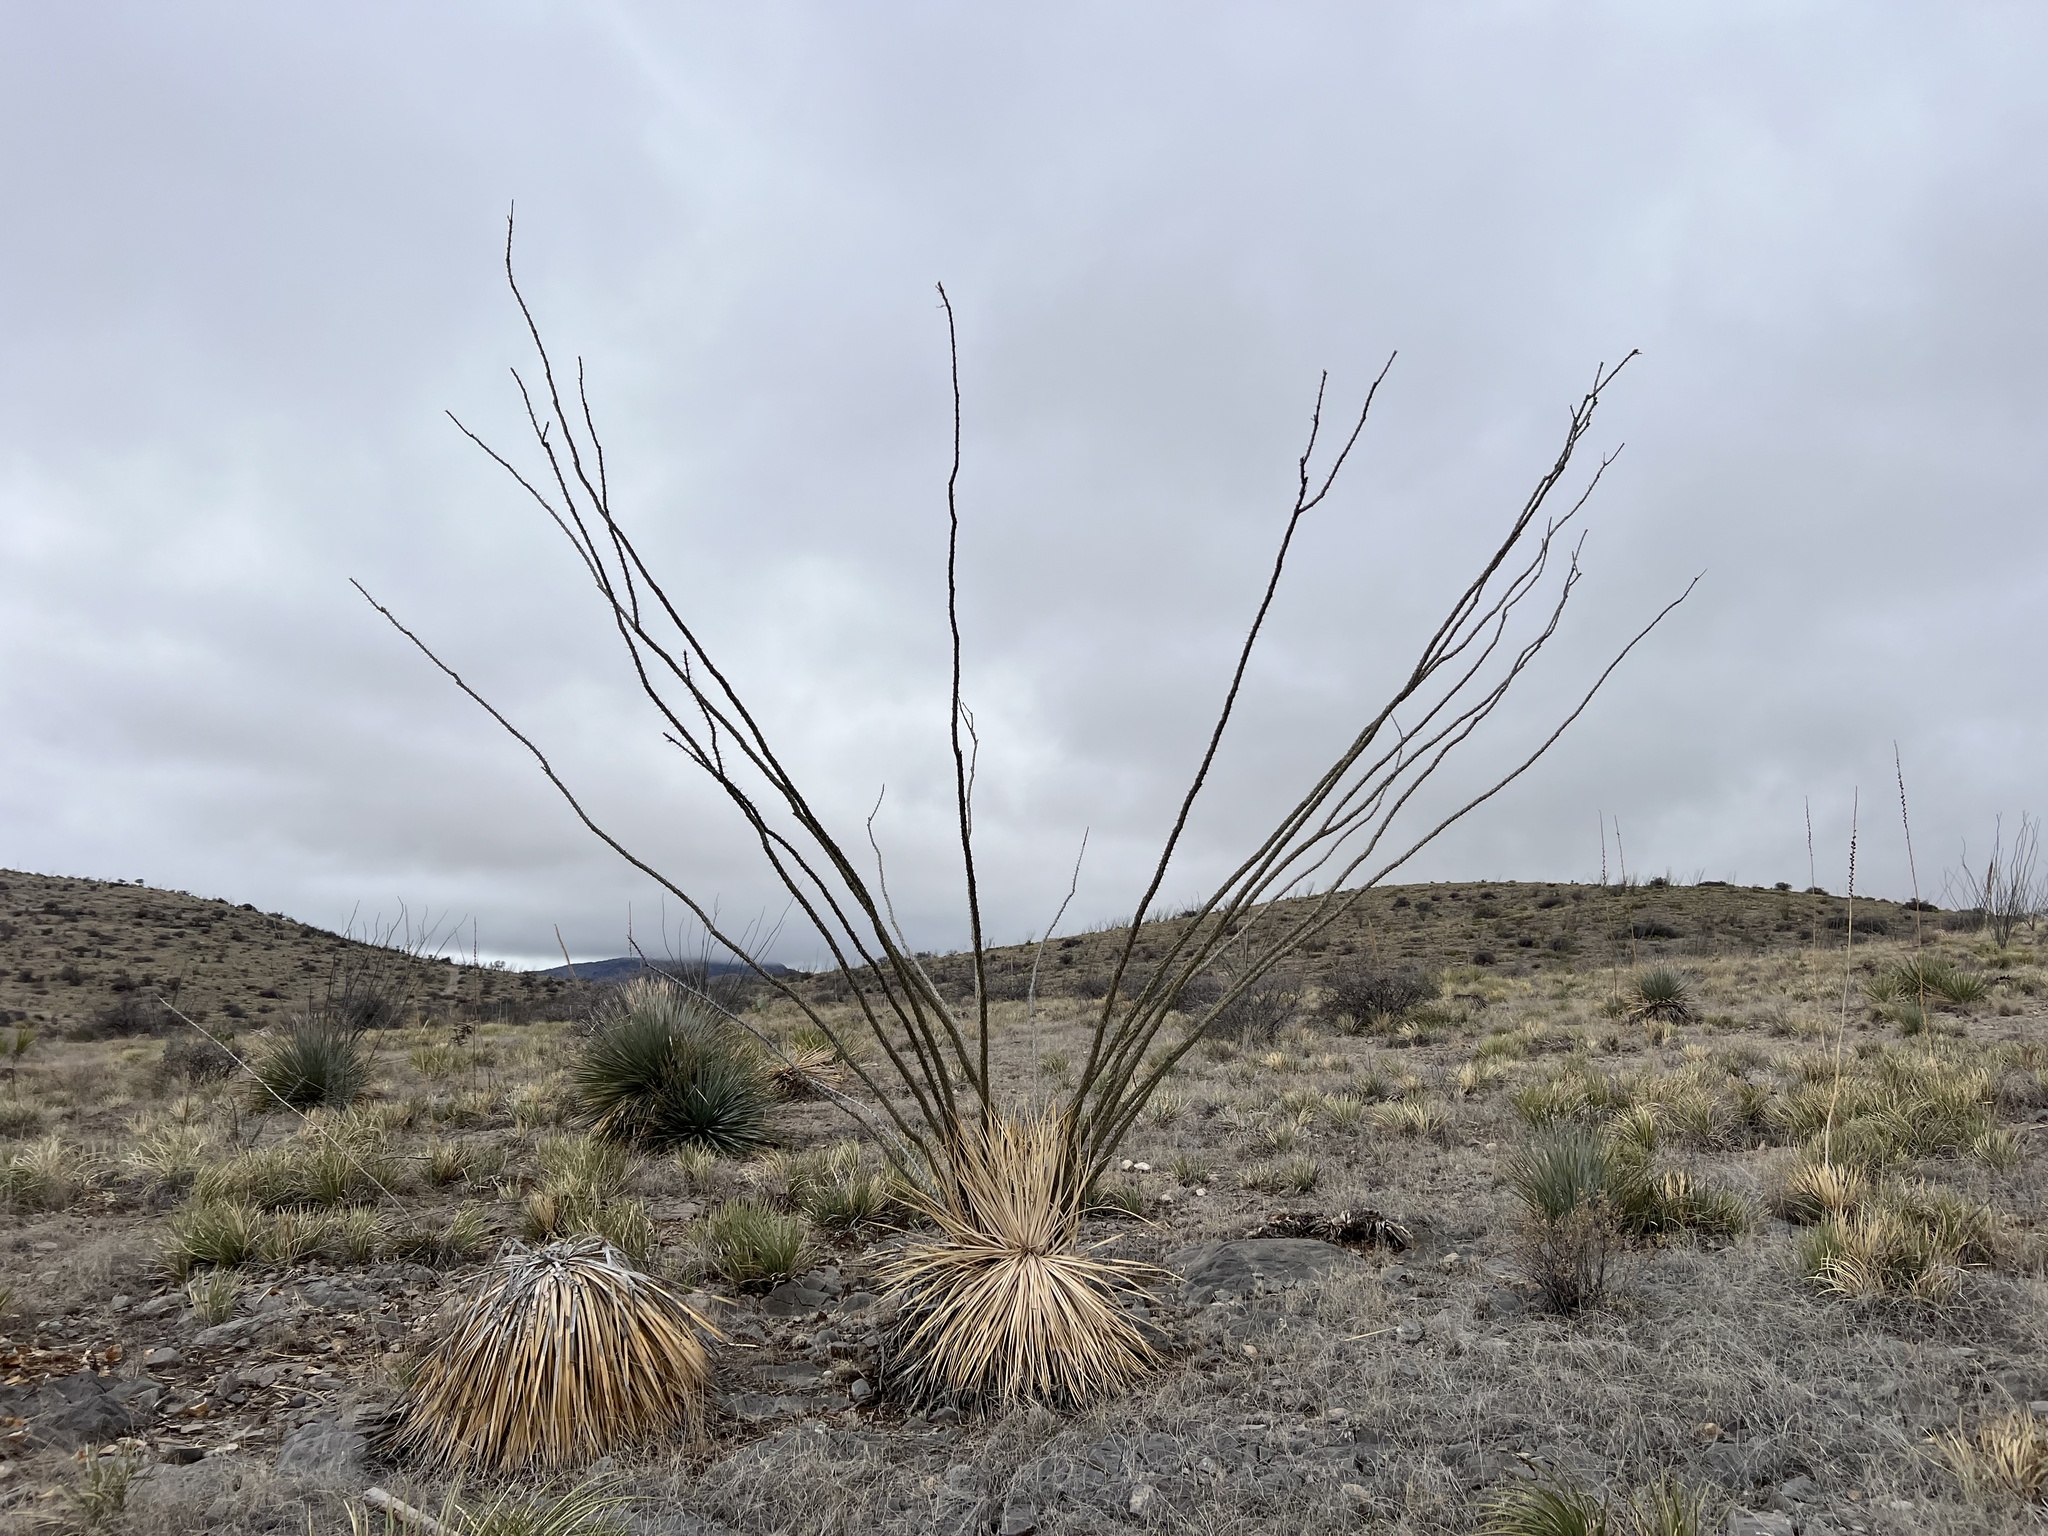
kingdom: Plantae
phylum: Tracheophyta
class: Magnoliopsida
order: Ericales
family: Fouquieriaceae
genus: Fouquieria
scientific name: Fouquieria splendens
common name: Vine-cactus
